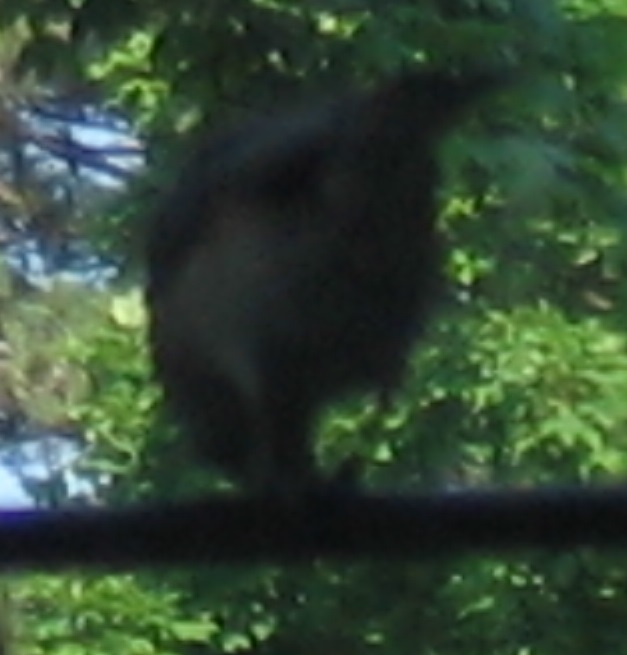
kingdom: Animalia
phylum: Chordata
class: Aves
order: Passeriformes
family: Paridae
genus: Baeolophus
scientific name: Baeolophus bicolor
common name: Tufted titmouse
